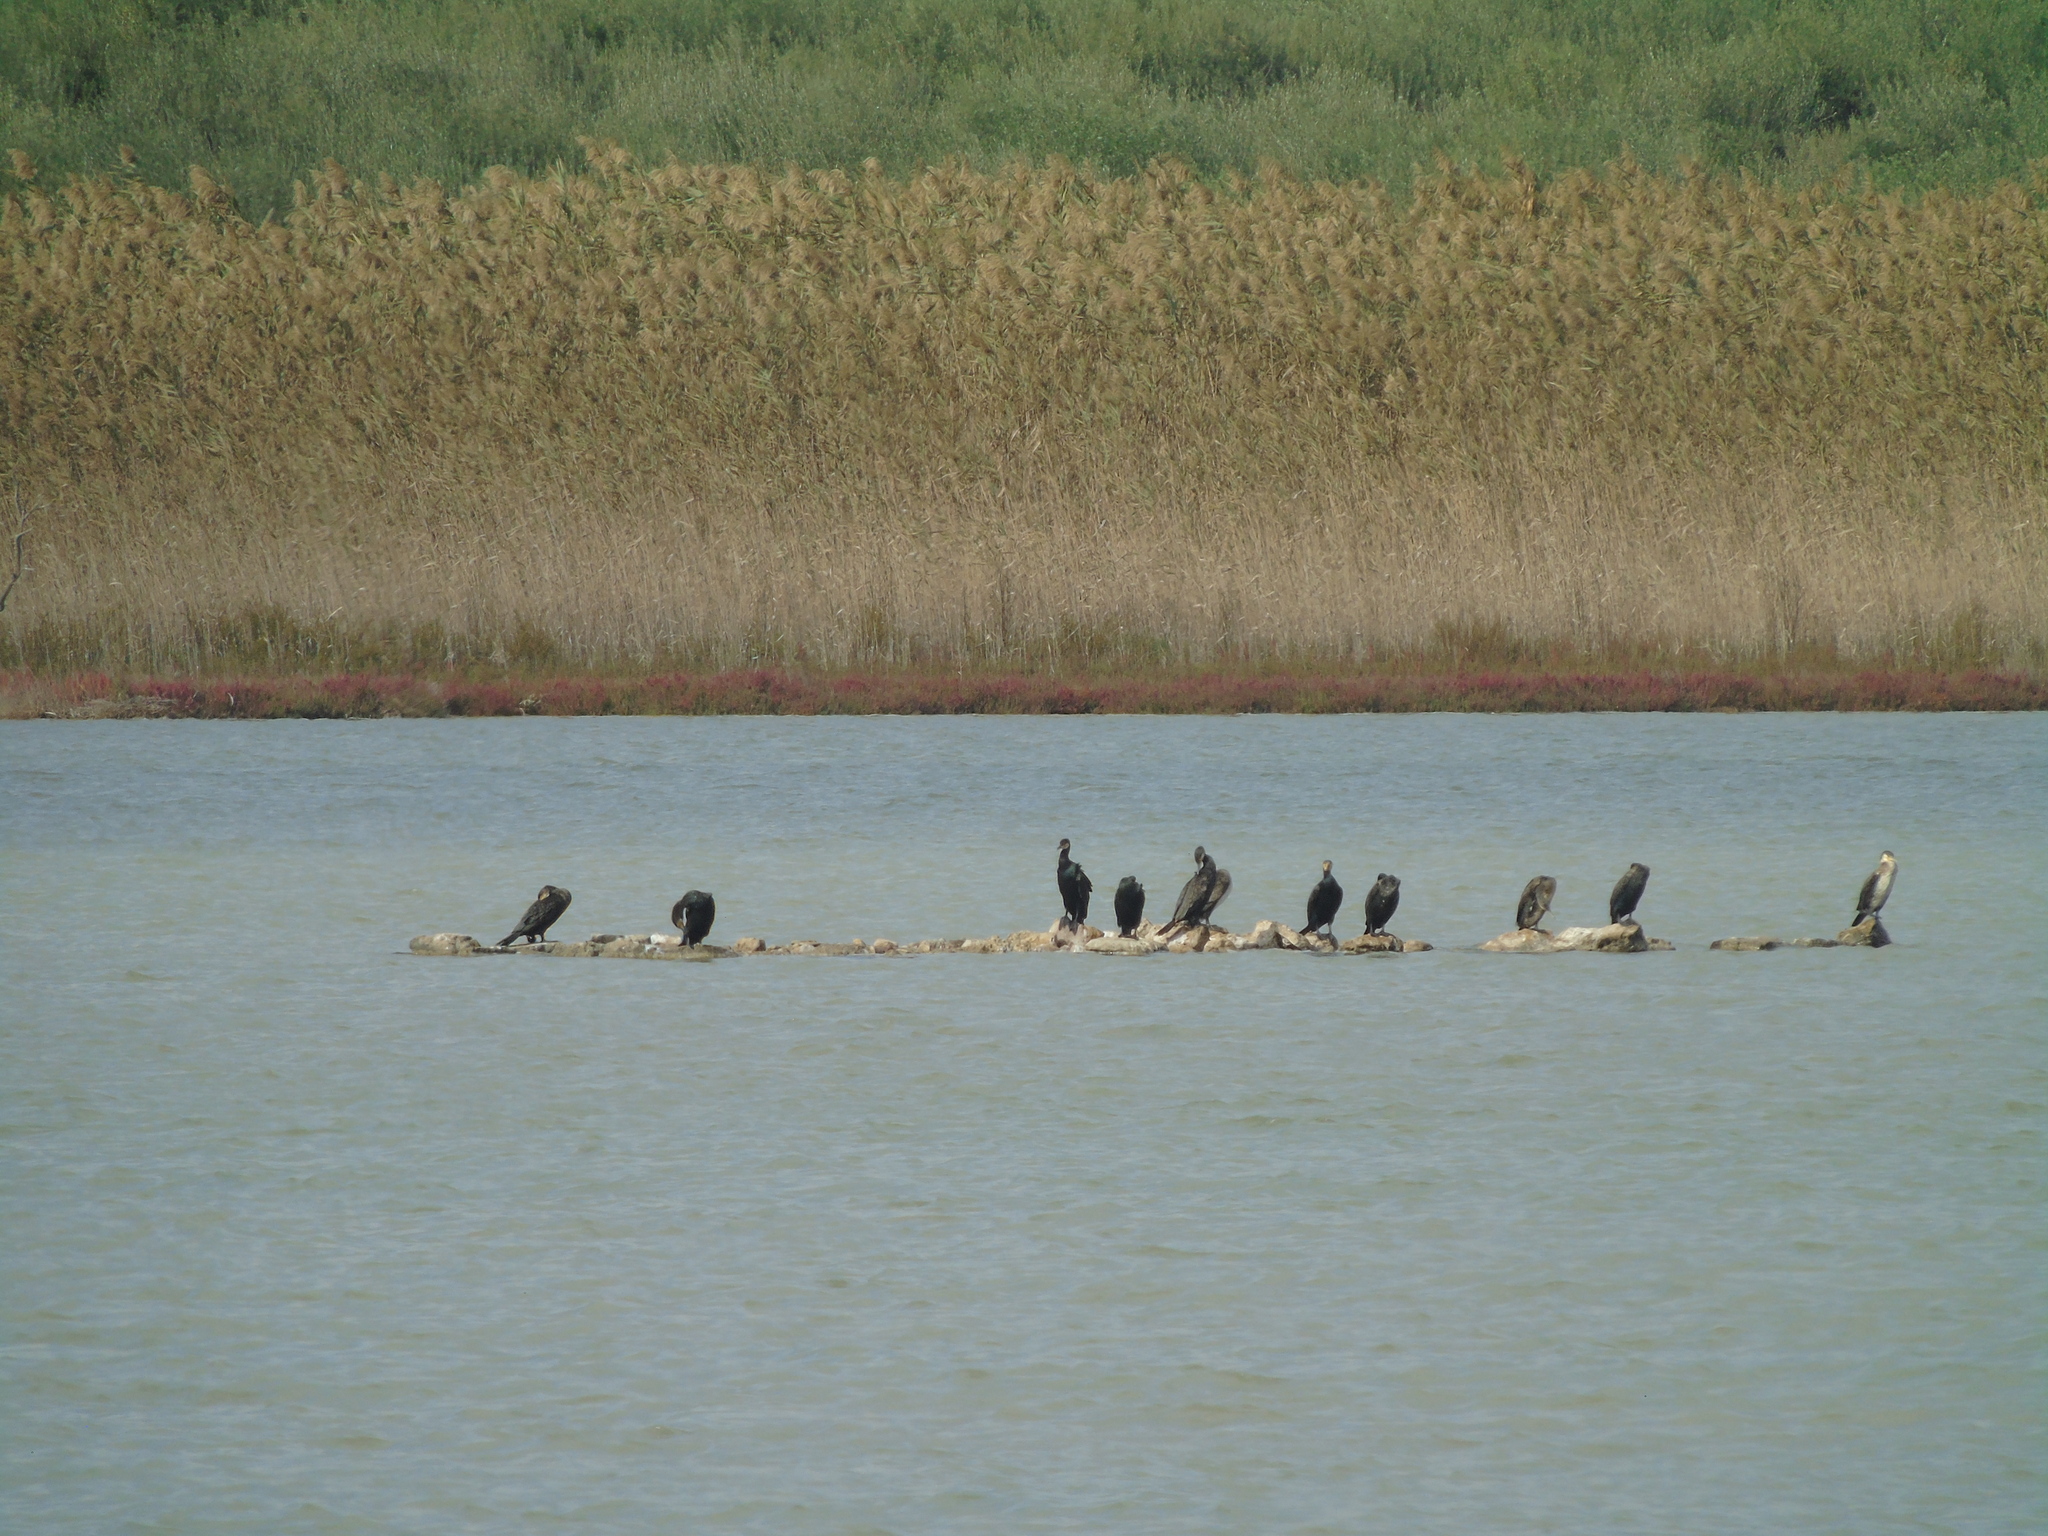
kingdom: Animalia
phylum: Chordata
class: Aves
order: Suliformes
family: Phalacrocoracidae
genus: Phalacrocorax
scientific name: Phalacrocorax carbo
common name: Great cormorant
